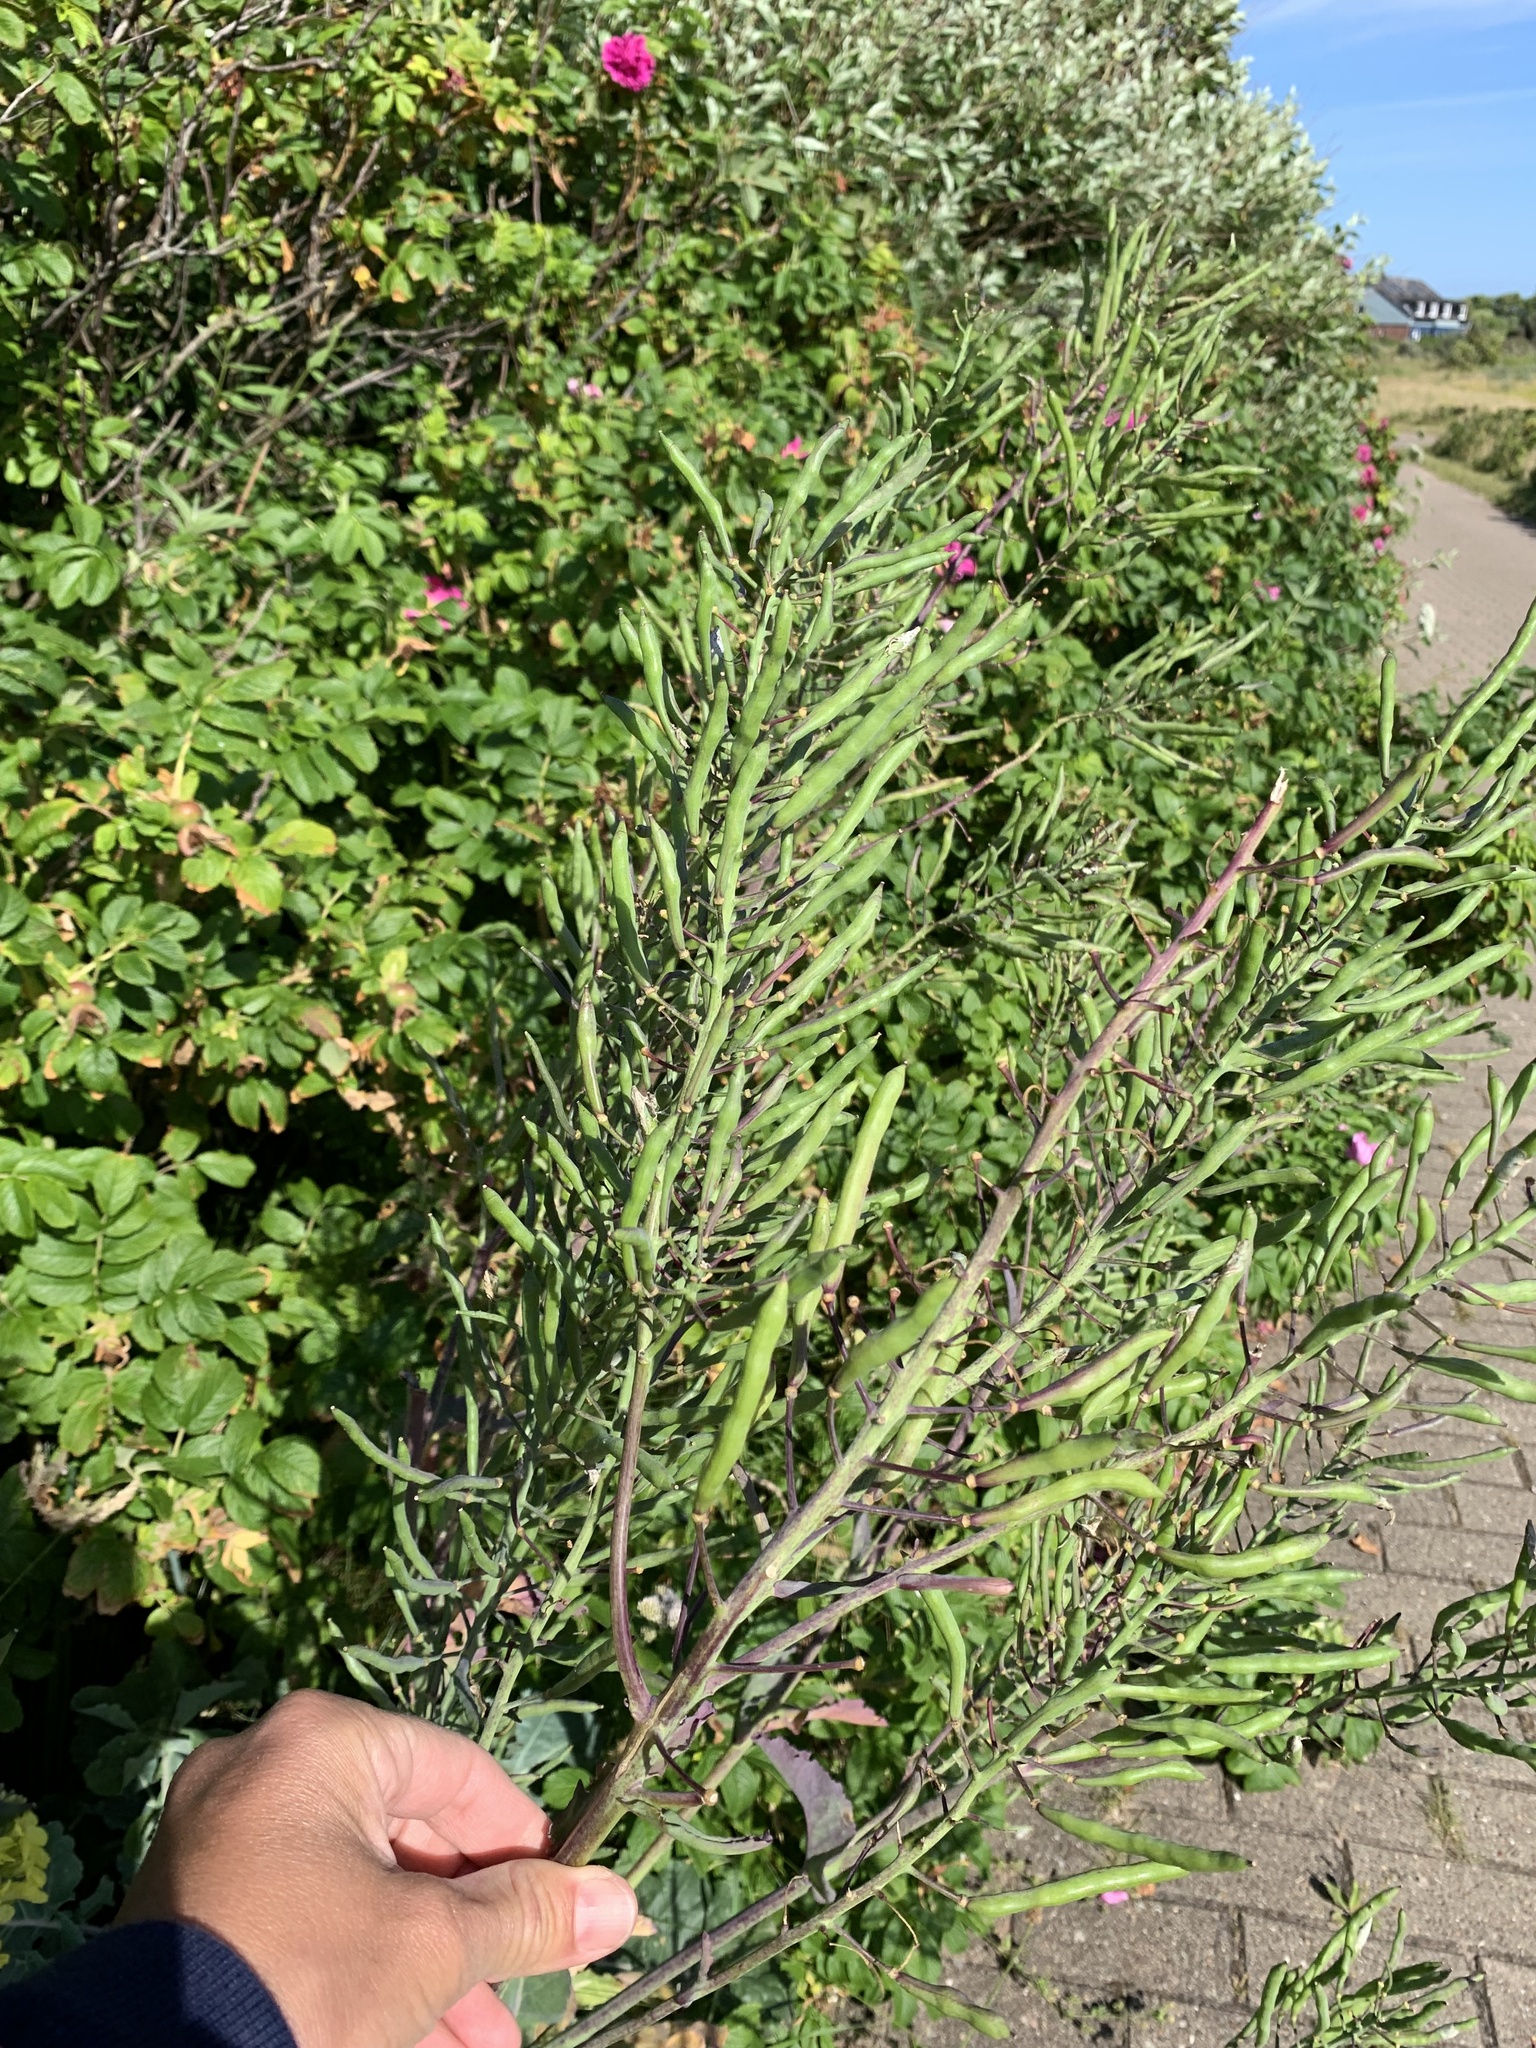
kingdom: Plantae
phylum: Tracheophyta
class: Magnoliopsida
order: Brassicales
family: Brassicaceae
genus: Brassica
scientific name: Brassica oleracea
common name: Cabbage
